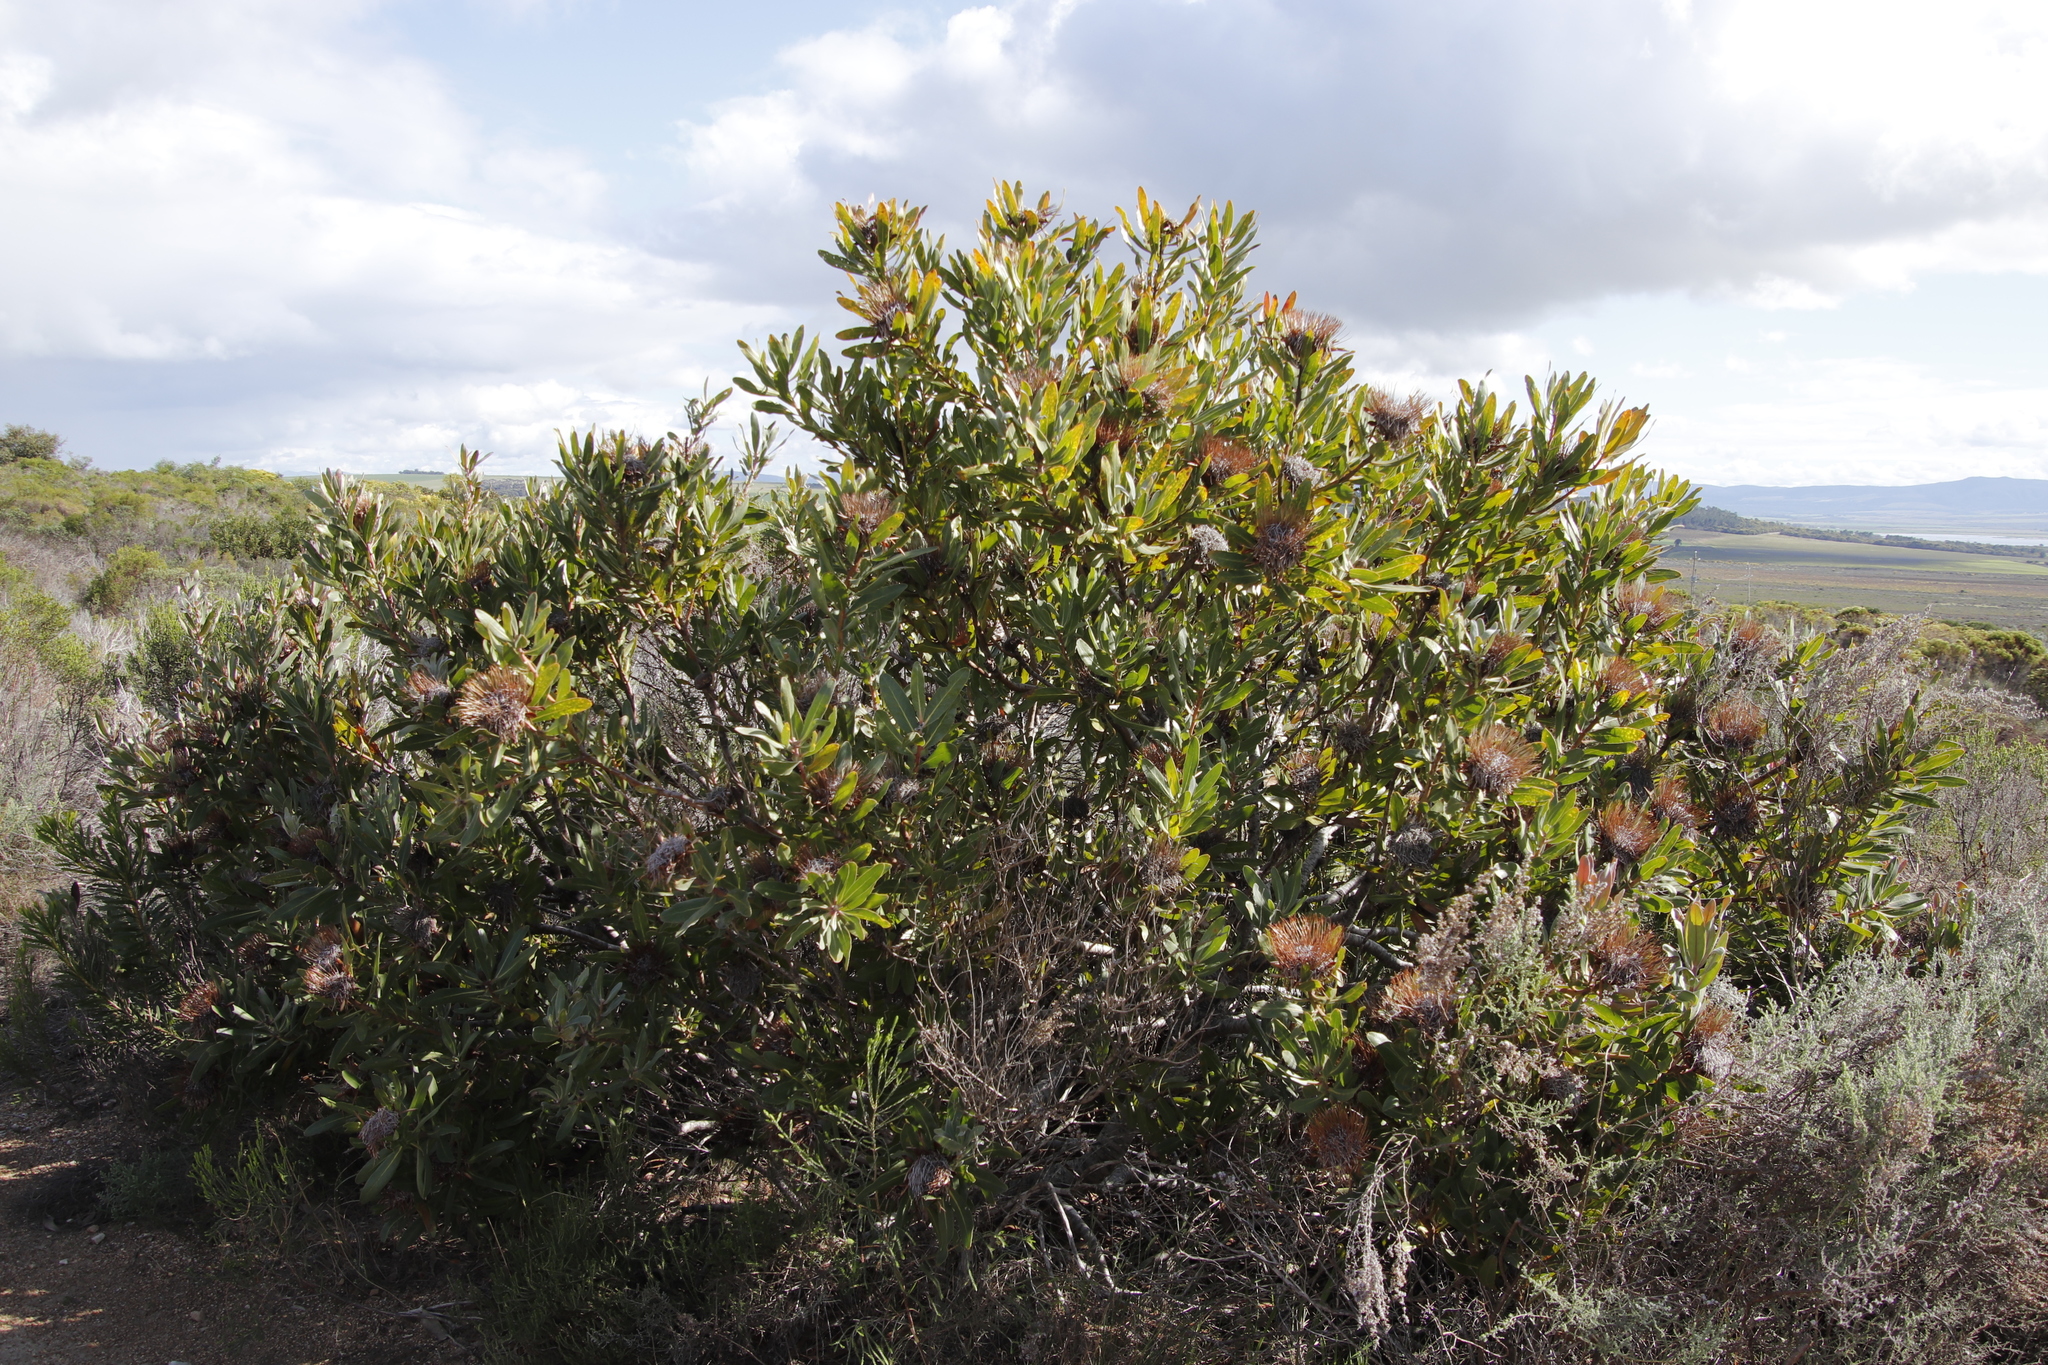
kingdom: Plantae
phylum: Tracheophyta
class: Magnoliopsida
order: Proteales
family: Proteaceae
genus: Protea
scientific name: Protea susannae
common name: Foetid-leaf sugarbush
